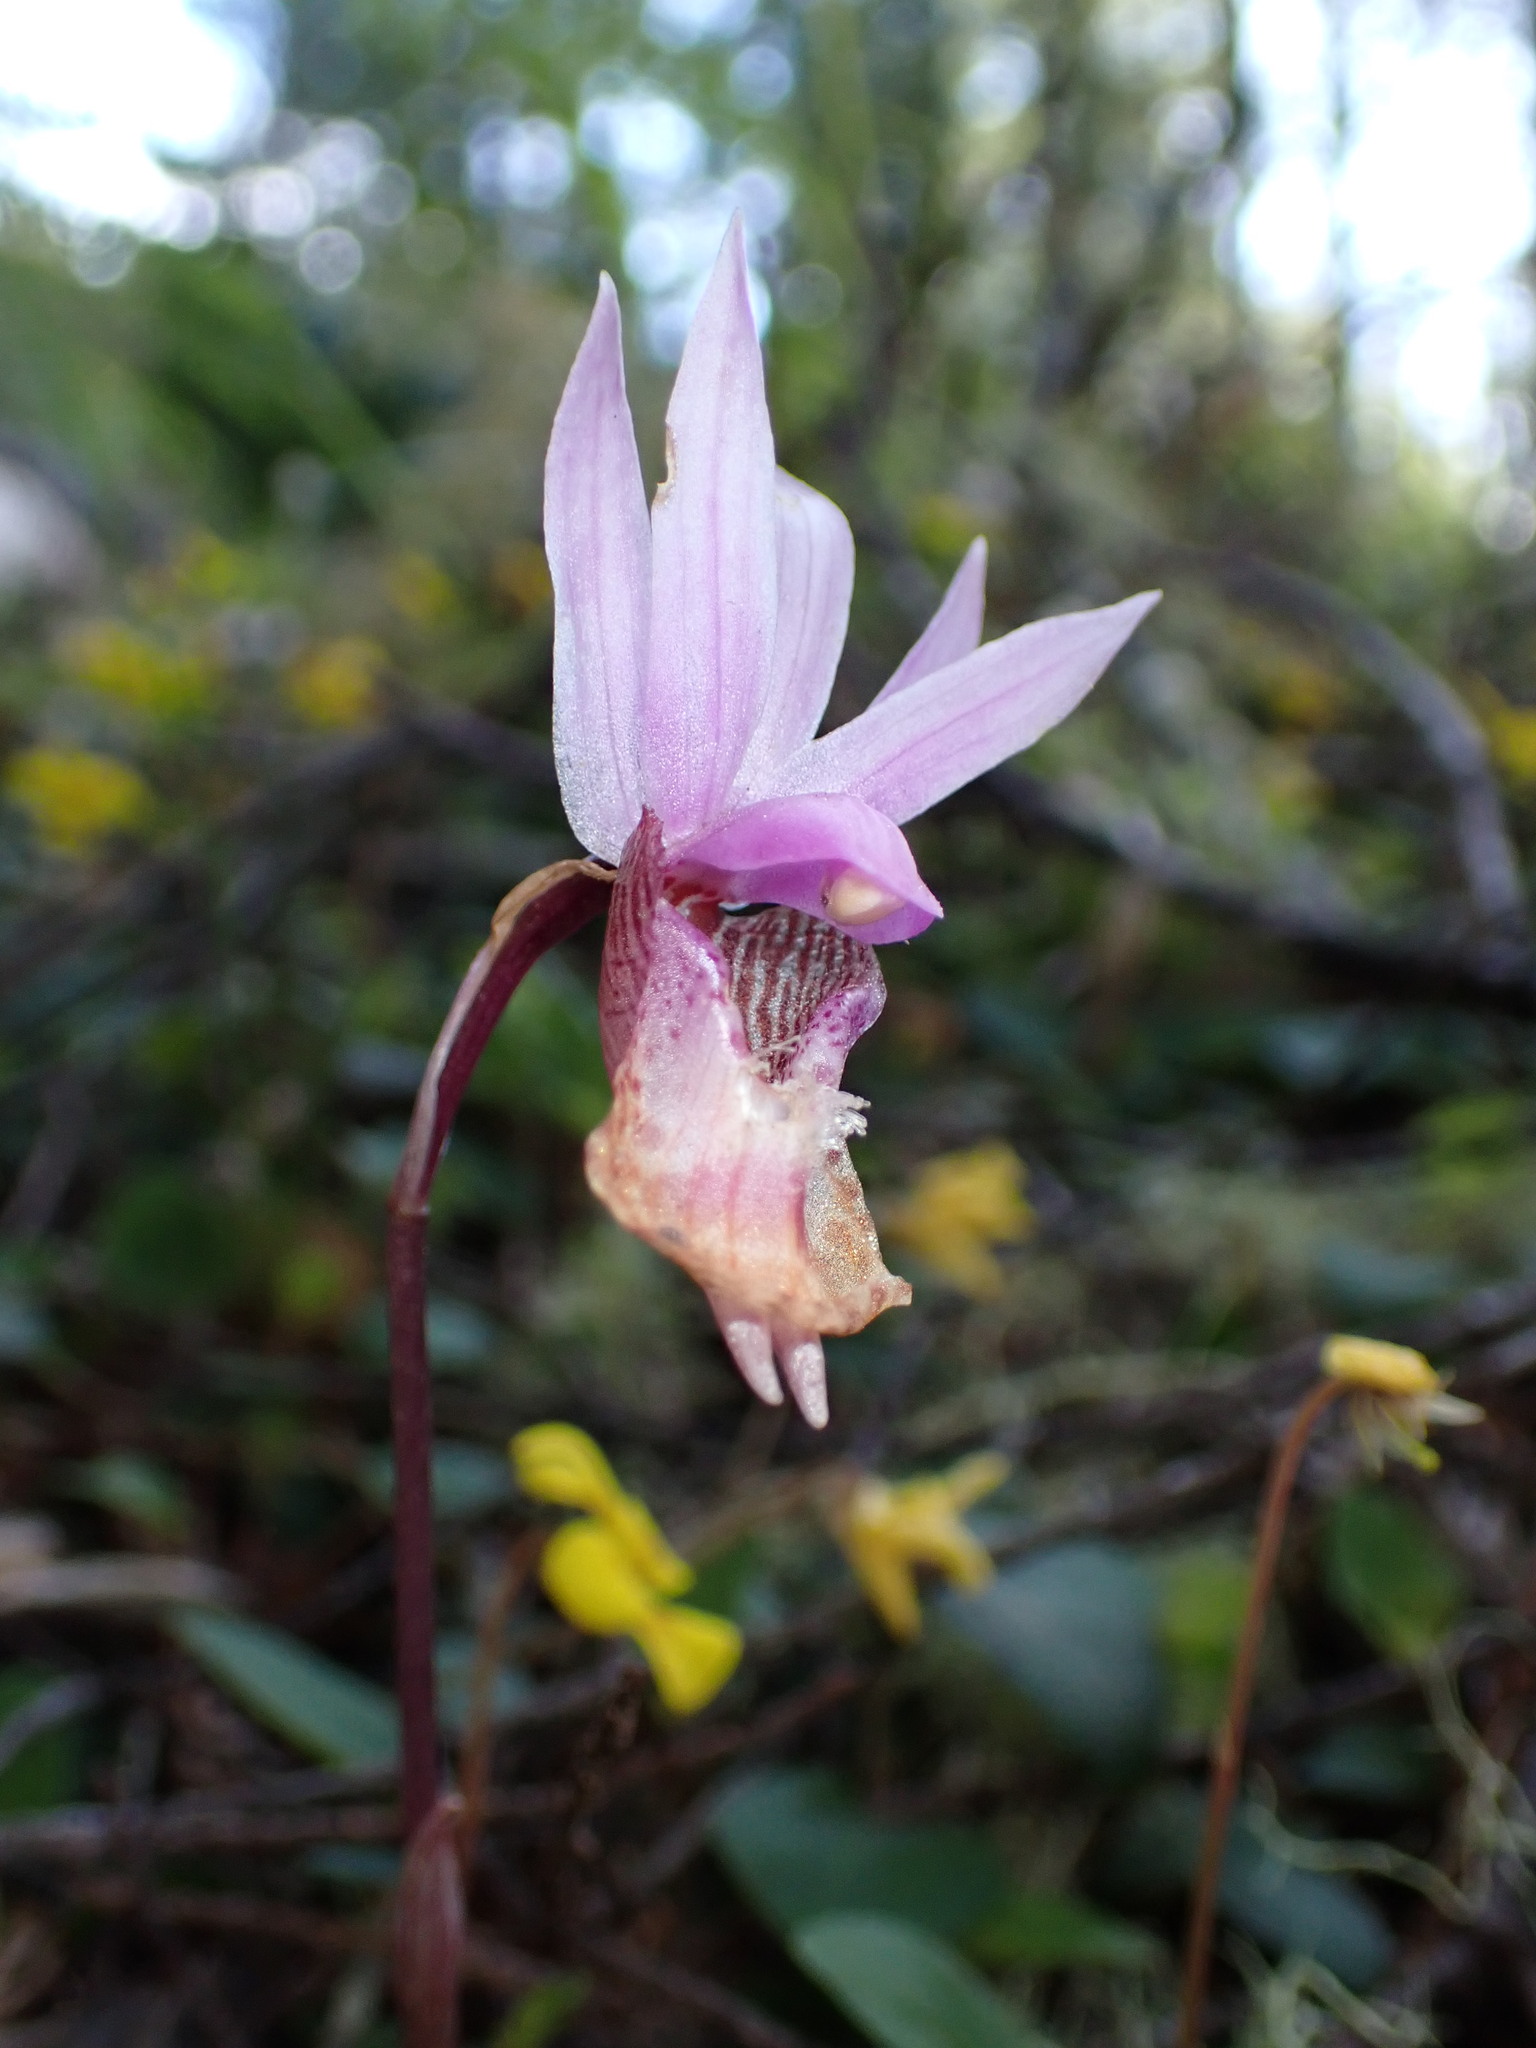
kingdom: Plantae
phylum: Tracheophyta
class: Liliopsida
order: Asparagales
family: Orchidaceae
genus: Calypso
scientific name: Calypso bulbosa
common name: Calypso
